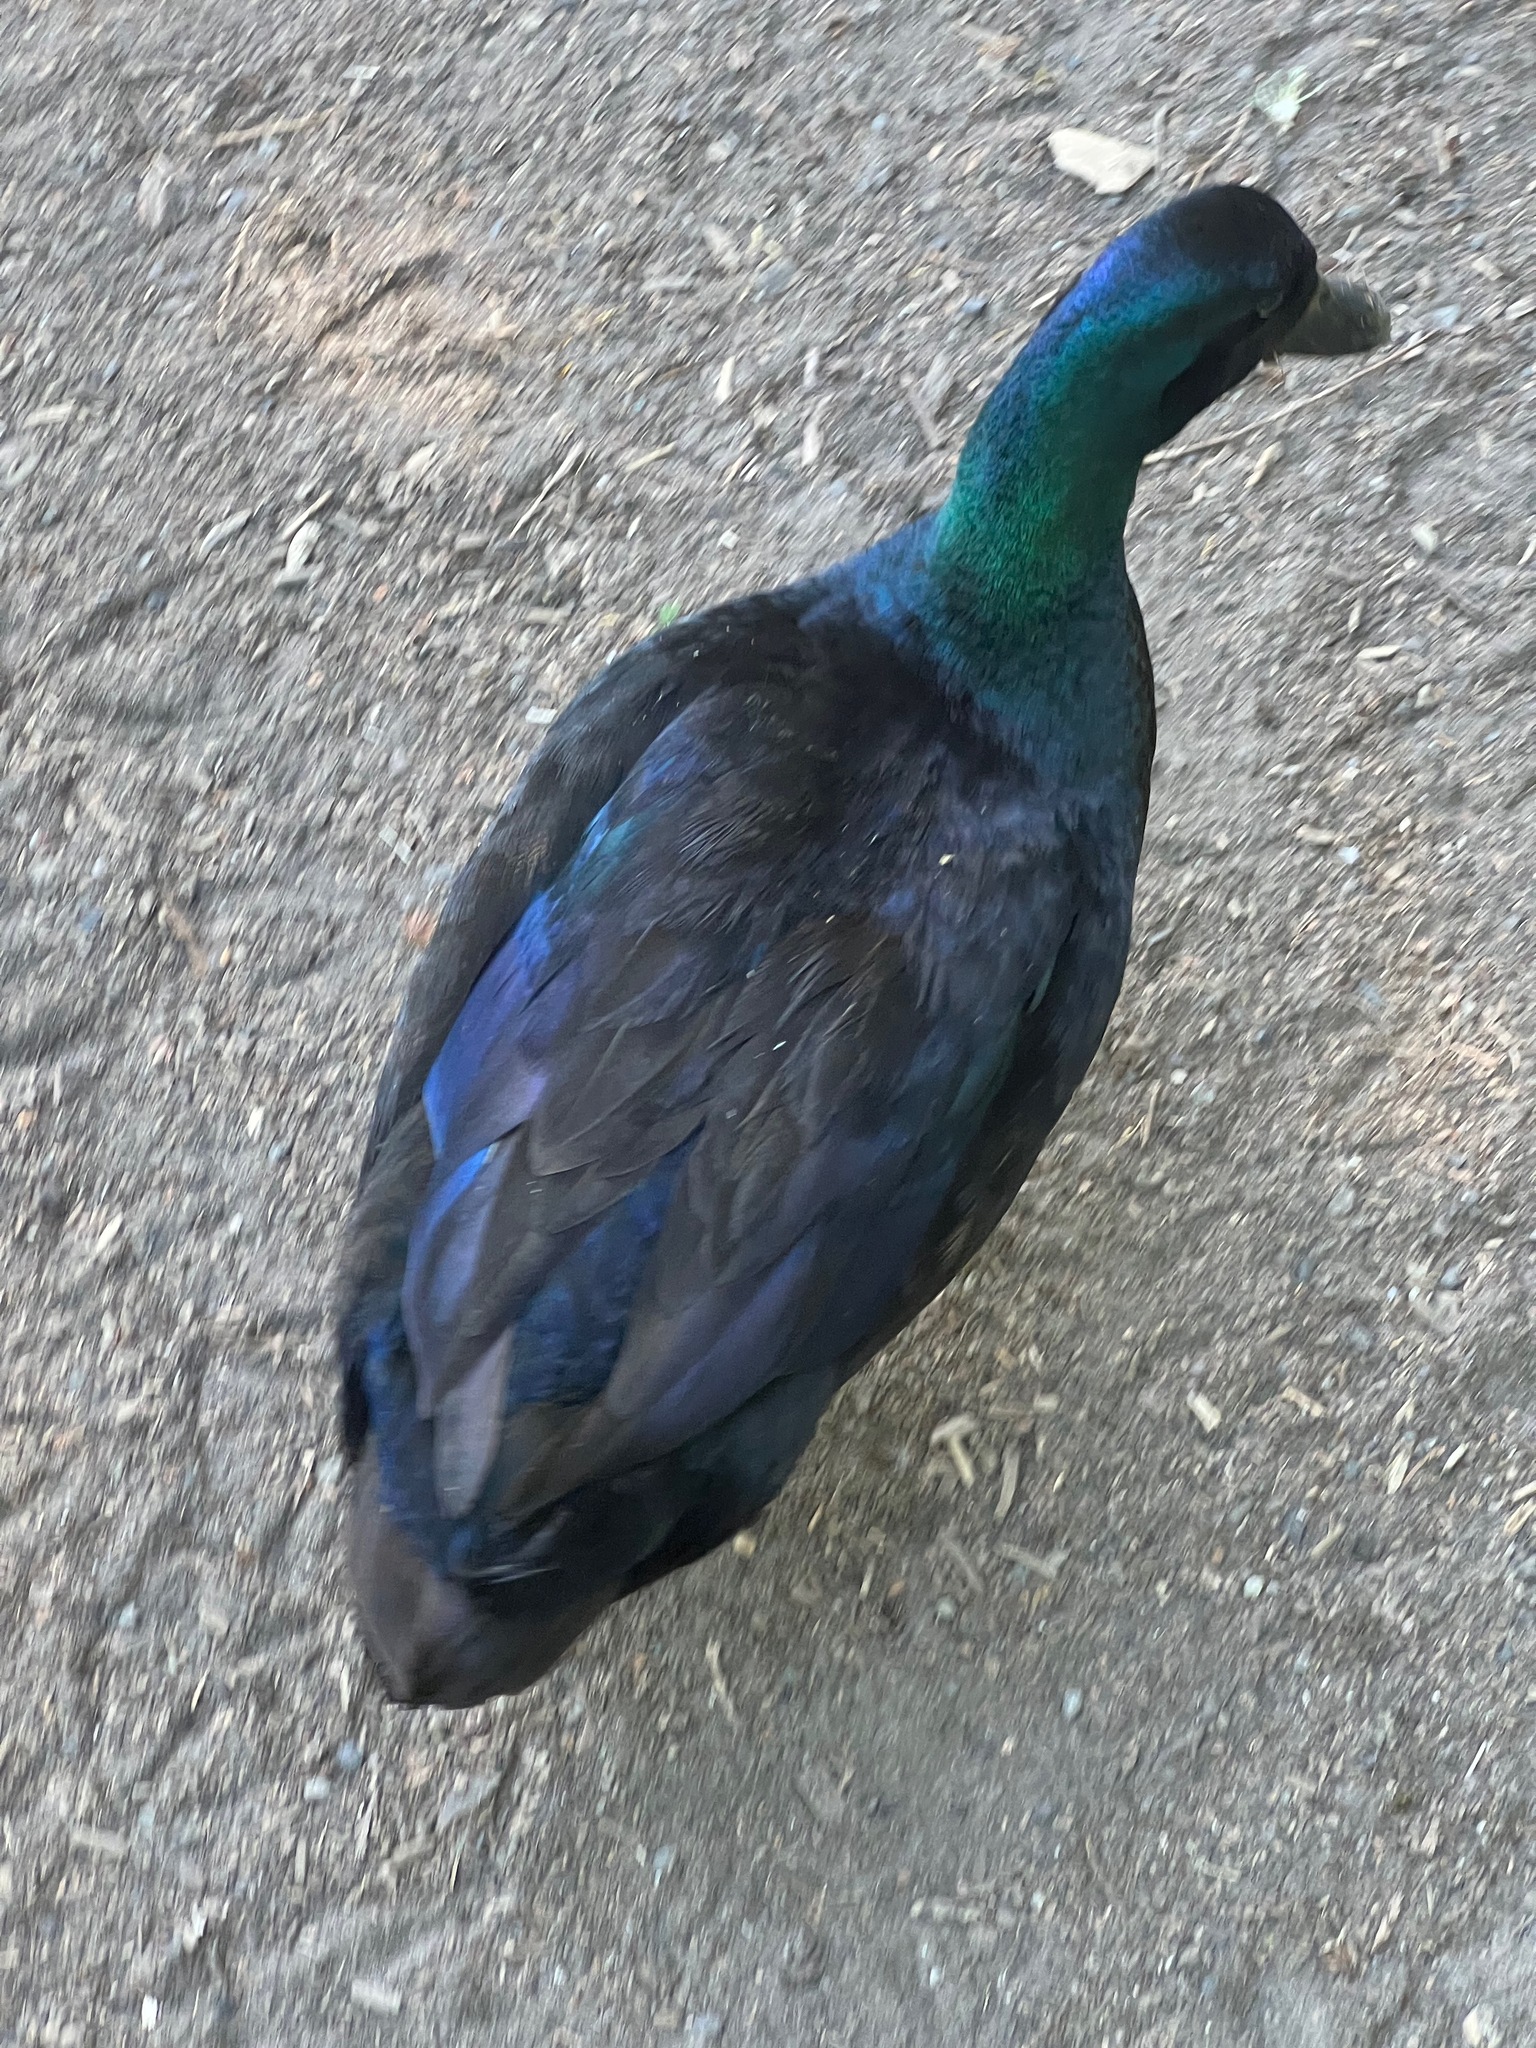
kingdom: Animalia
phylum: Chordata
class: Aves
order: Anseriformes
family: Anatidae
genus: Anas
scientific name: Anas platyrhynchos
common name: Mallard
